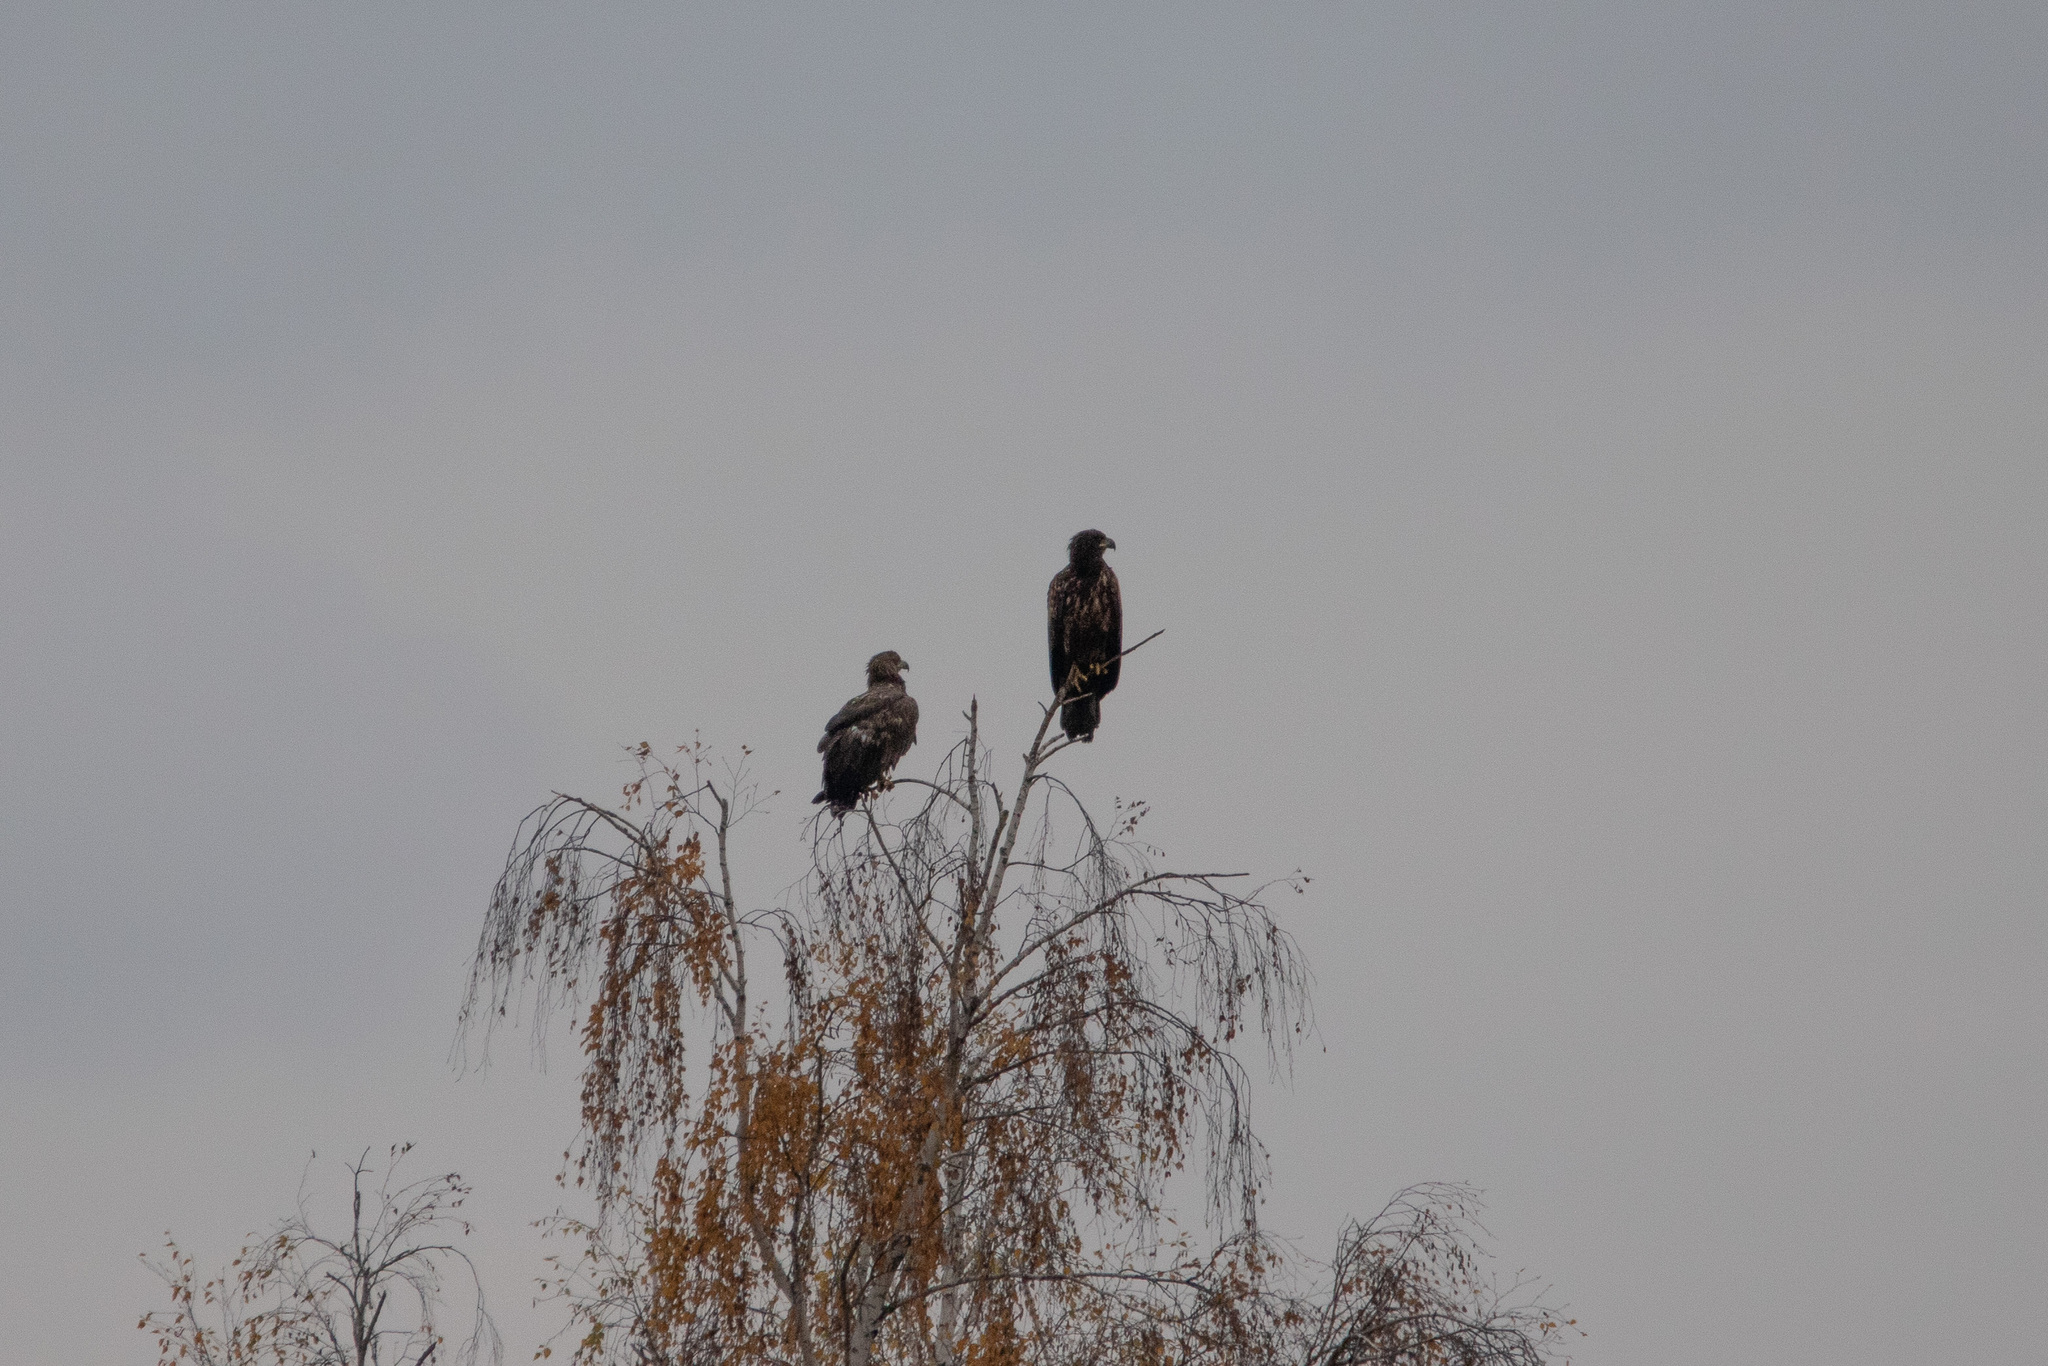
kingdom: Animalia
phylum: Chordata
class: Aves
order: Accipitriformes
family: Accipitridae
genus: Haliaeetus
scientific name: Haliaeetus albicilla
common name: White-tailed eagle
